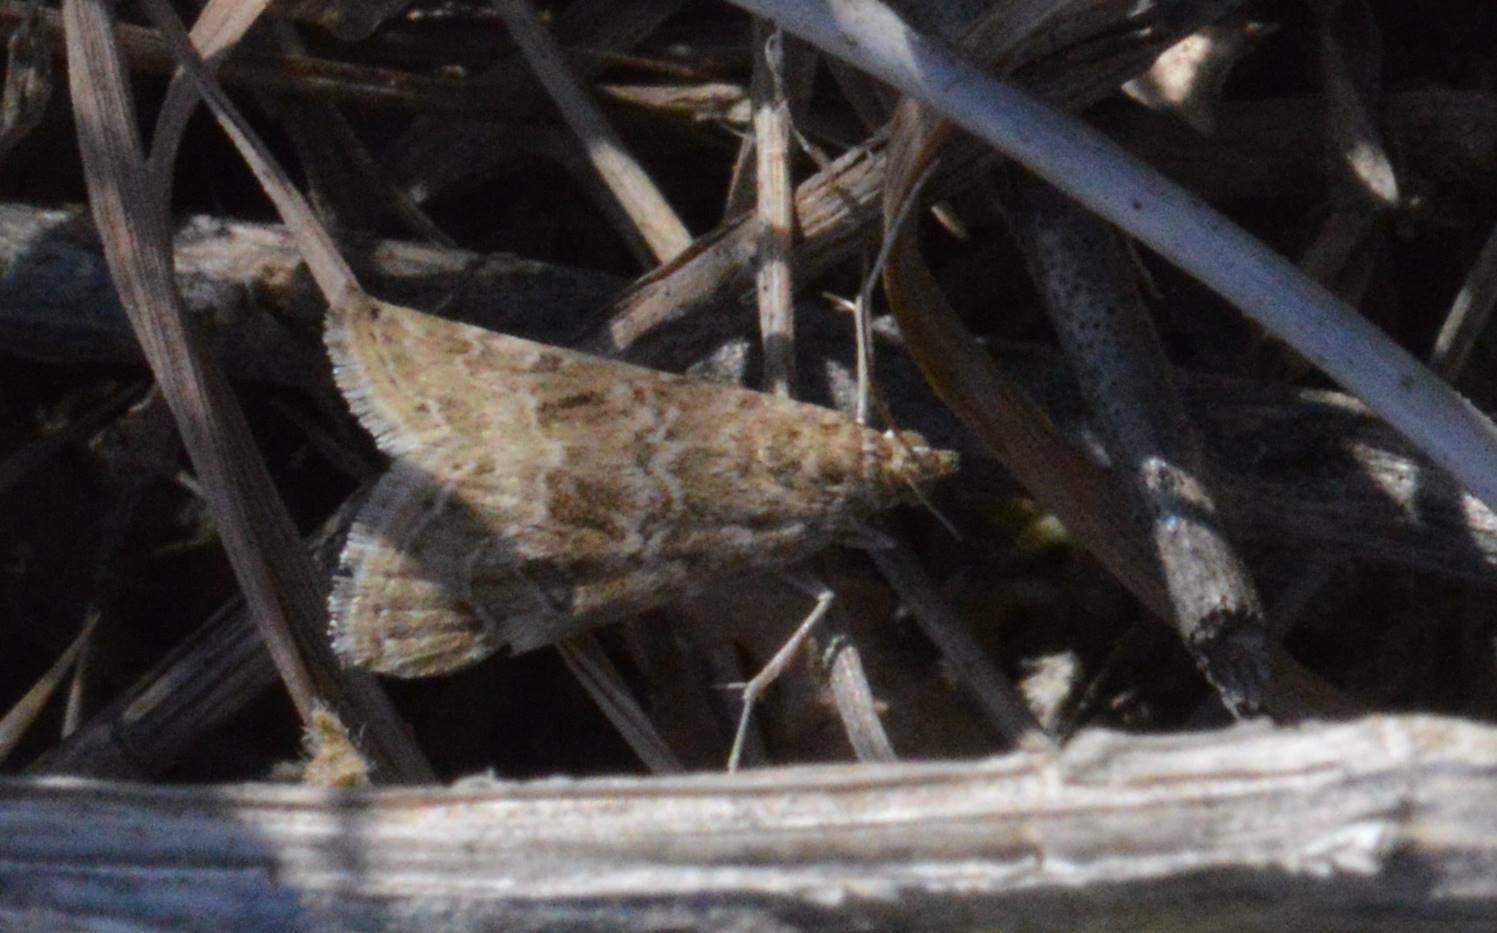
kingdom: Animalia
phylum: Arthropoda
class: Insecta
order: Lepidoptera
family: Crambidae
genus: Hellula
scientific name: Hellula undalis
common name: Cabbage webworm
